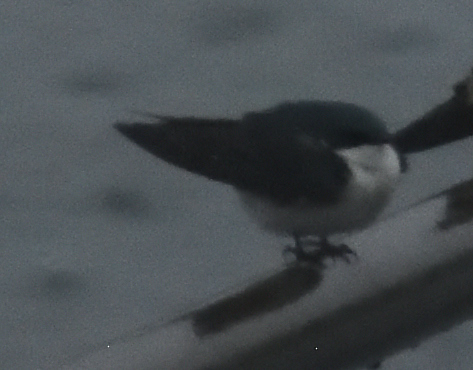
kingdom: Animalia
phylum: Chordata
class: Aves
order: Passeriformes
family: Hirundinidae
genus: Tachycineta
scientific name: Tachycineta bicolor
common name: Tree swallow
